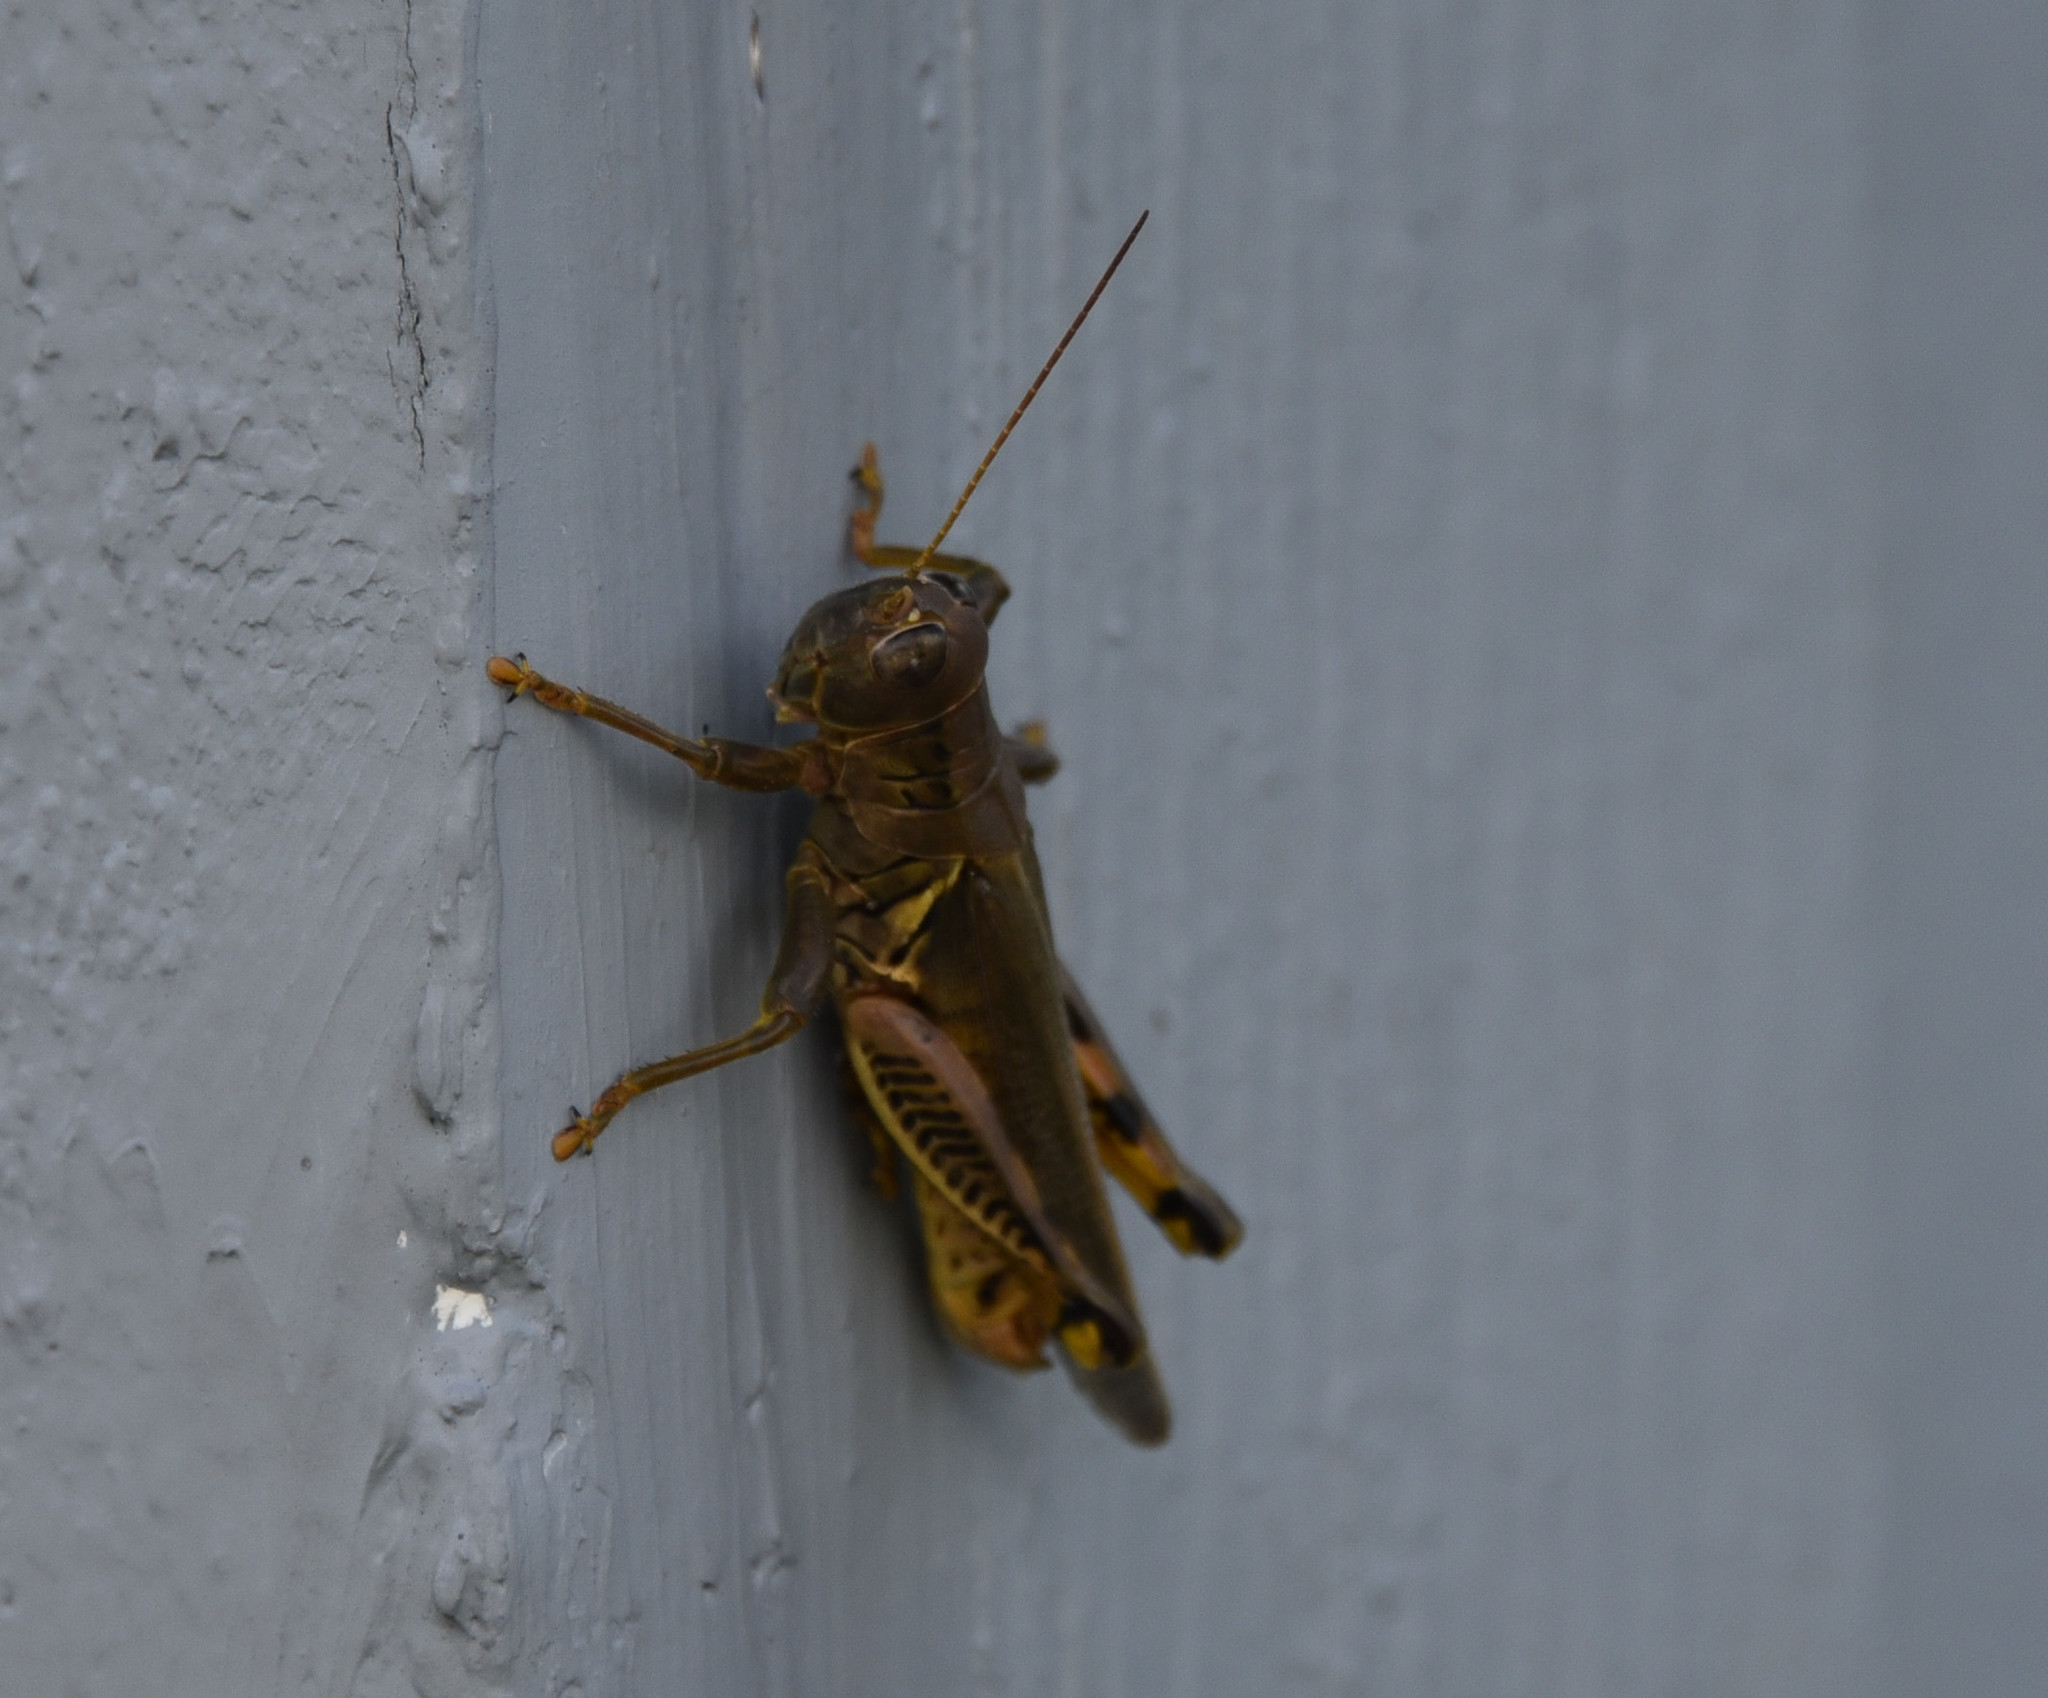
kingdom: Animalia
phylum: Arthropoda
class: Insecta
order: Orthoptera
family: Acrididae
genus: Melanoplus
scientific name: Melanoplus differentialis
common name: Differential grasshopper
